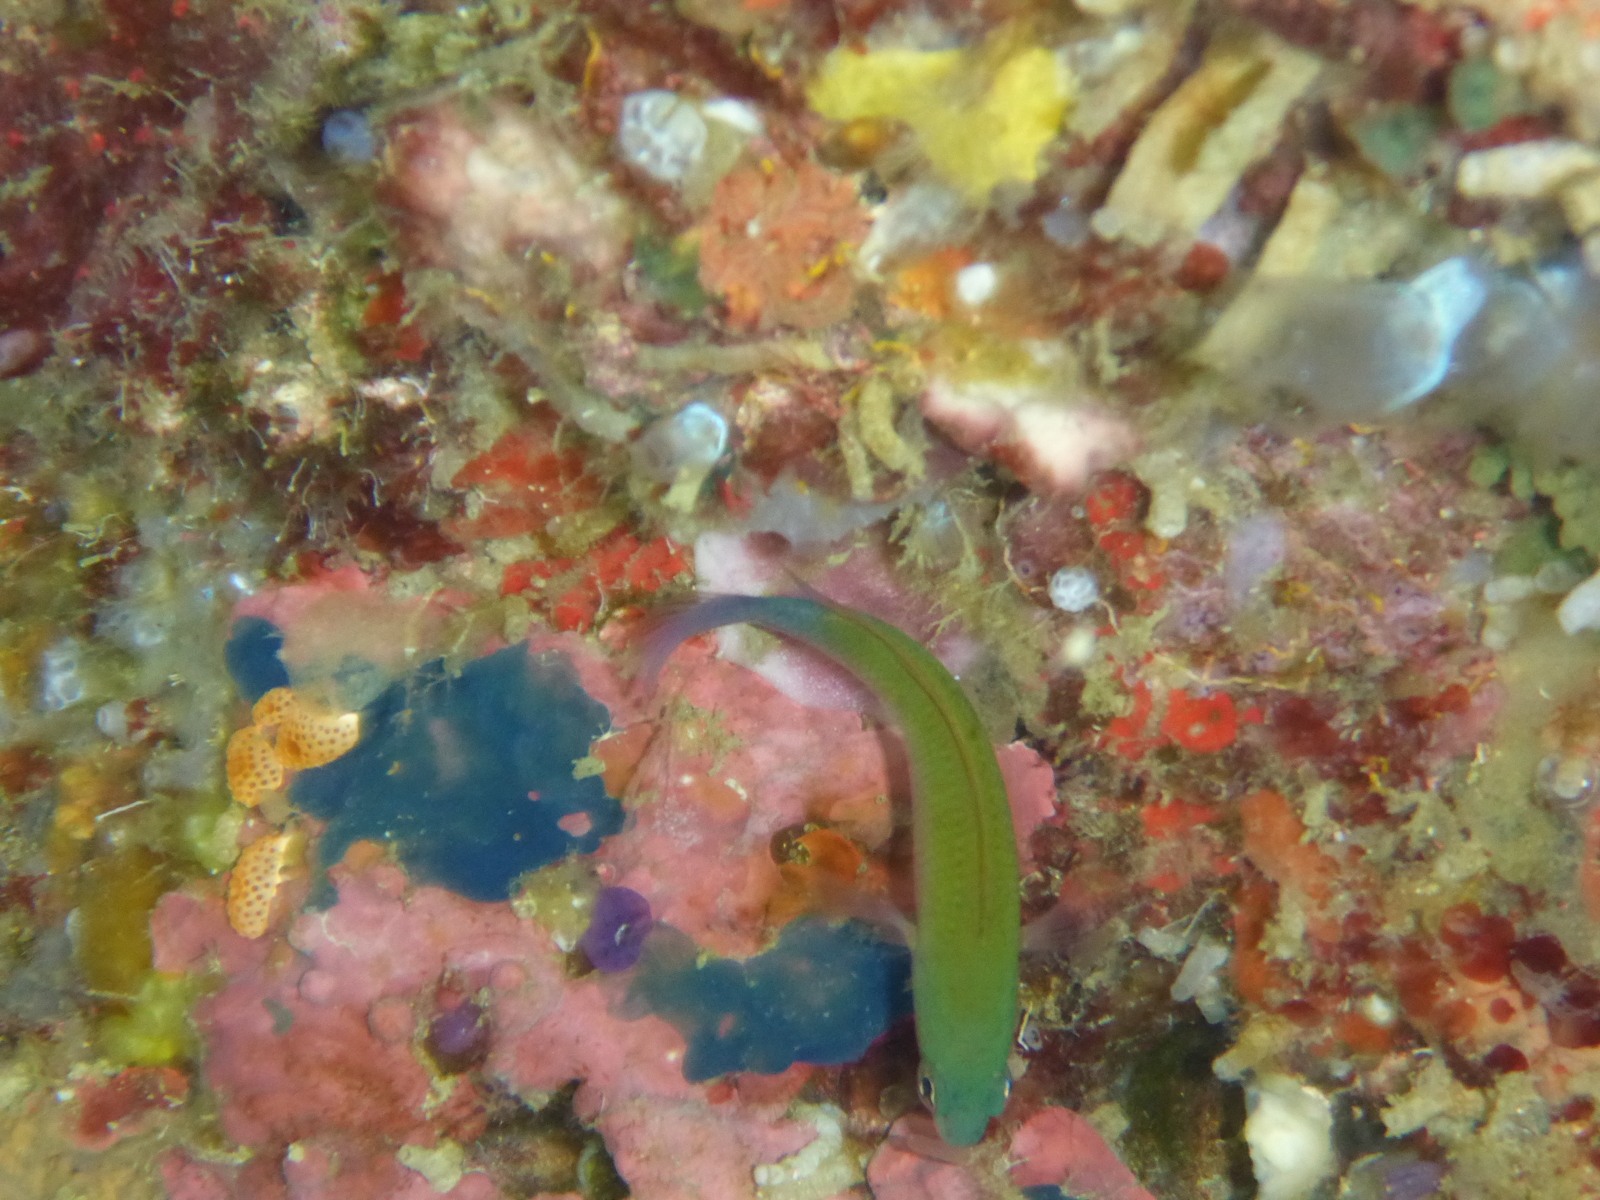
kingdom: Animalia
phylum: Chordata
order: Perciformes
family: Pseudochromidae
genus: Pseudochromis
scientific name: Pseudochromis litus
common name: Plain dottyback
